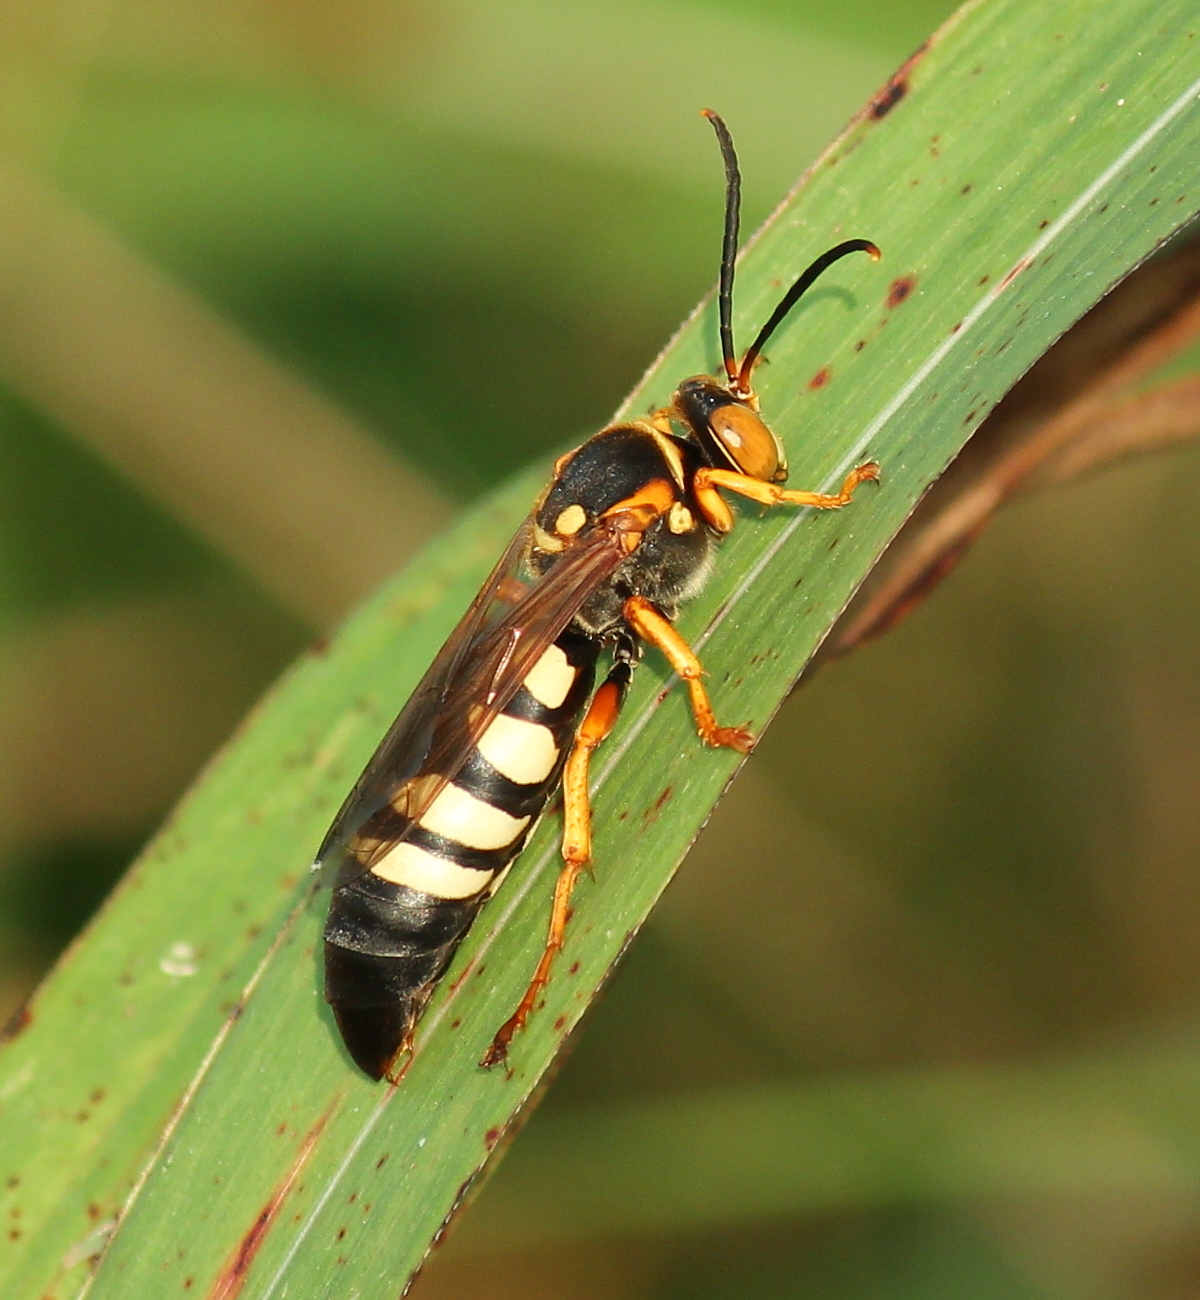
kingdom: Animalia
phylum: Arthropoda
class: Insecta
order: Hymenoptera
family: Crabronidae
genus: Stizus
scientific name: Stizus brevipennis
